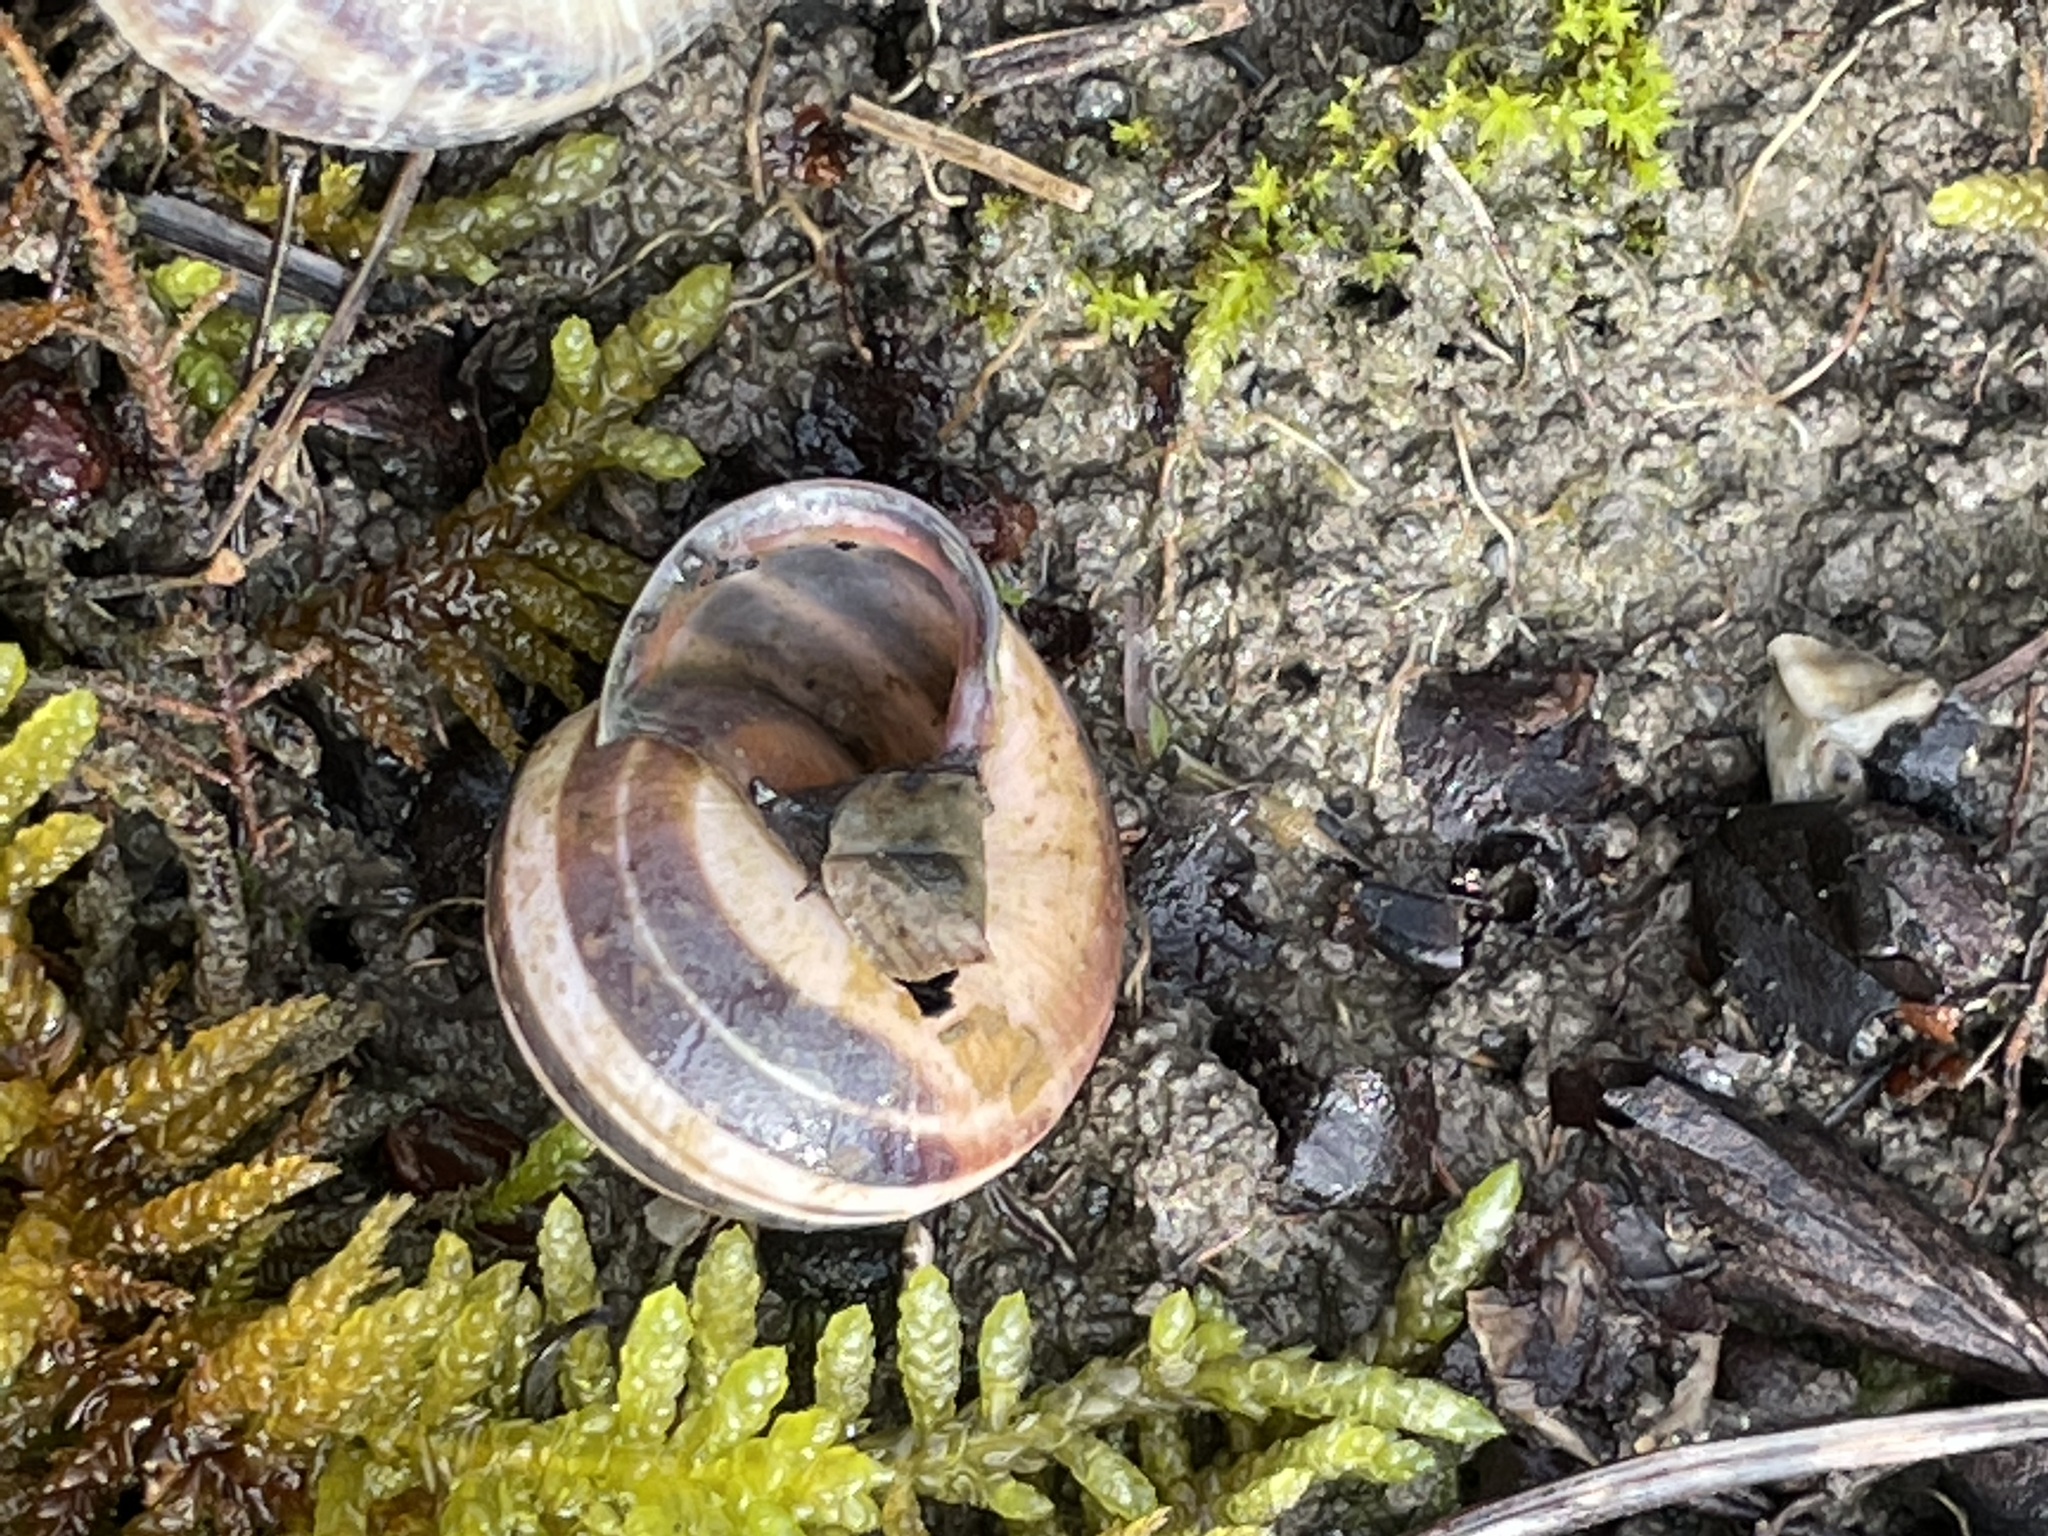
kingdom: Animalia
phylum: Mollusca
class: Gastropoda
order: Stylommatophora
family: Helicidae
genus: Cepaea
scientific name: Cepaea nemoralis
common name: Grovesnail
